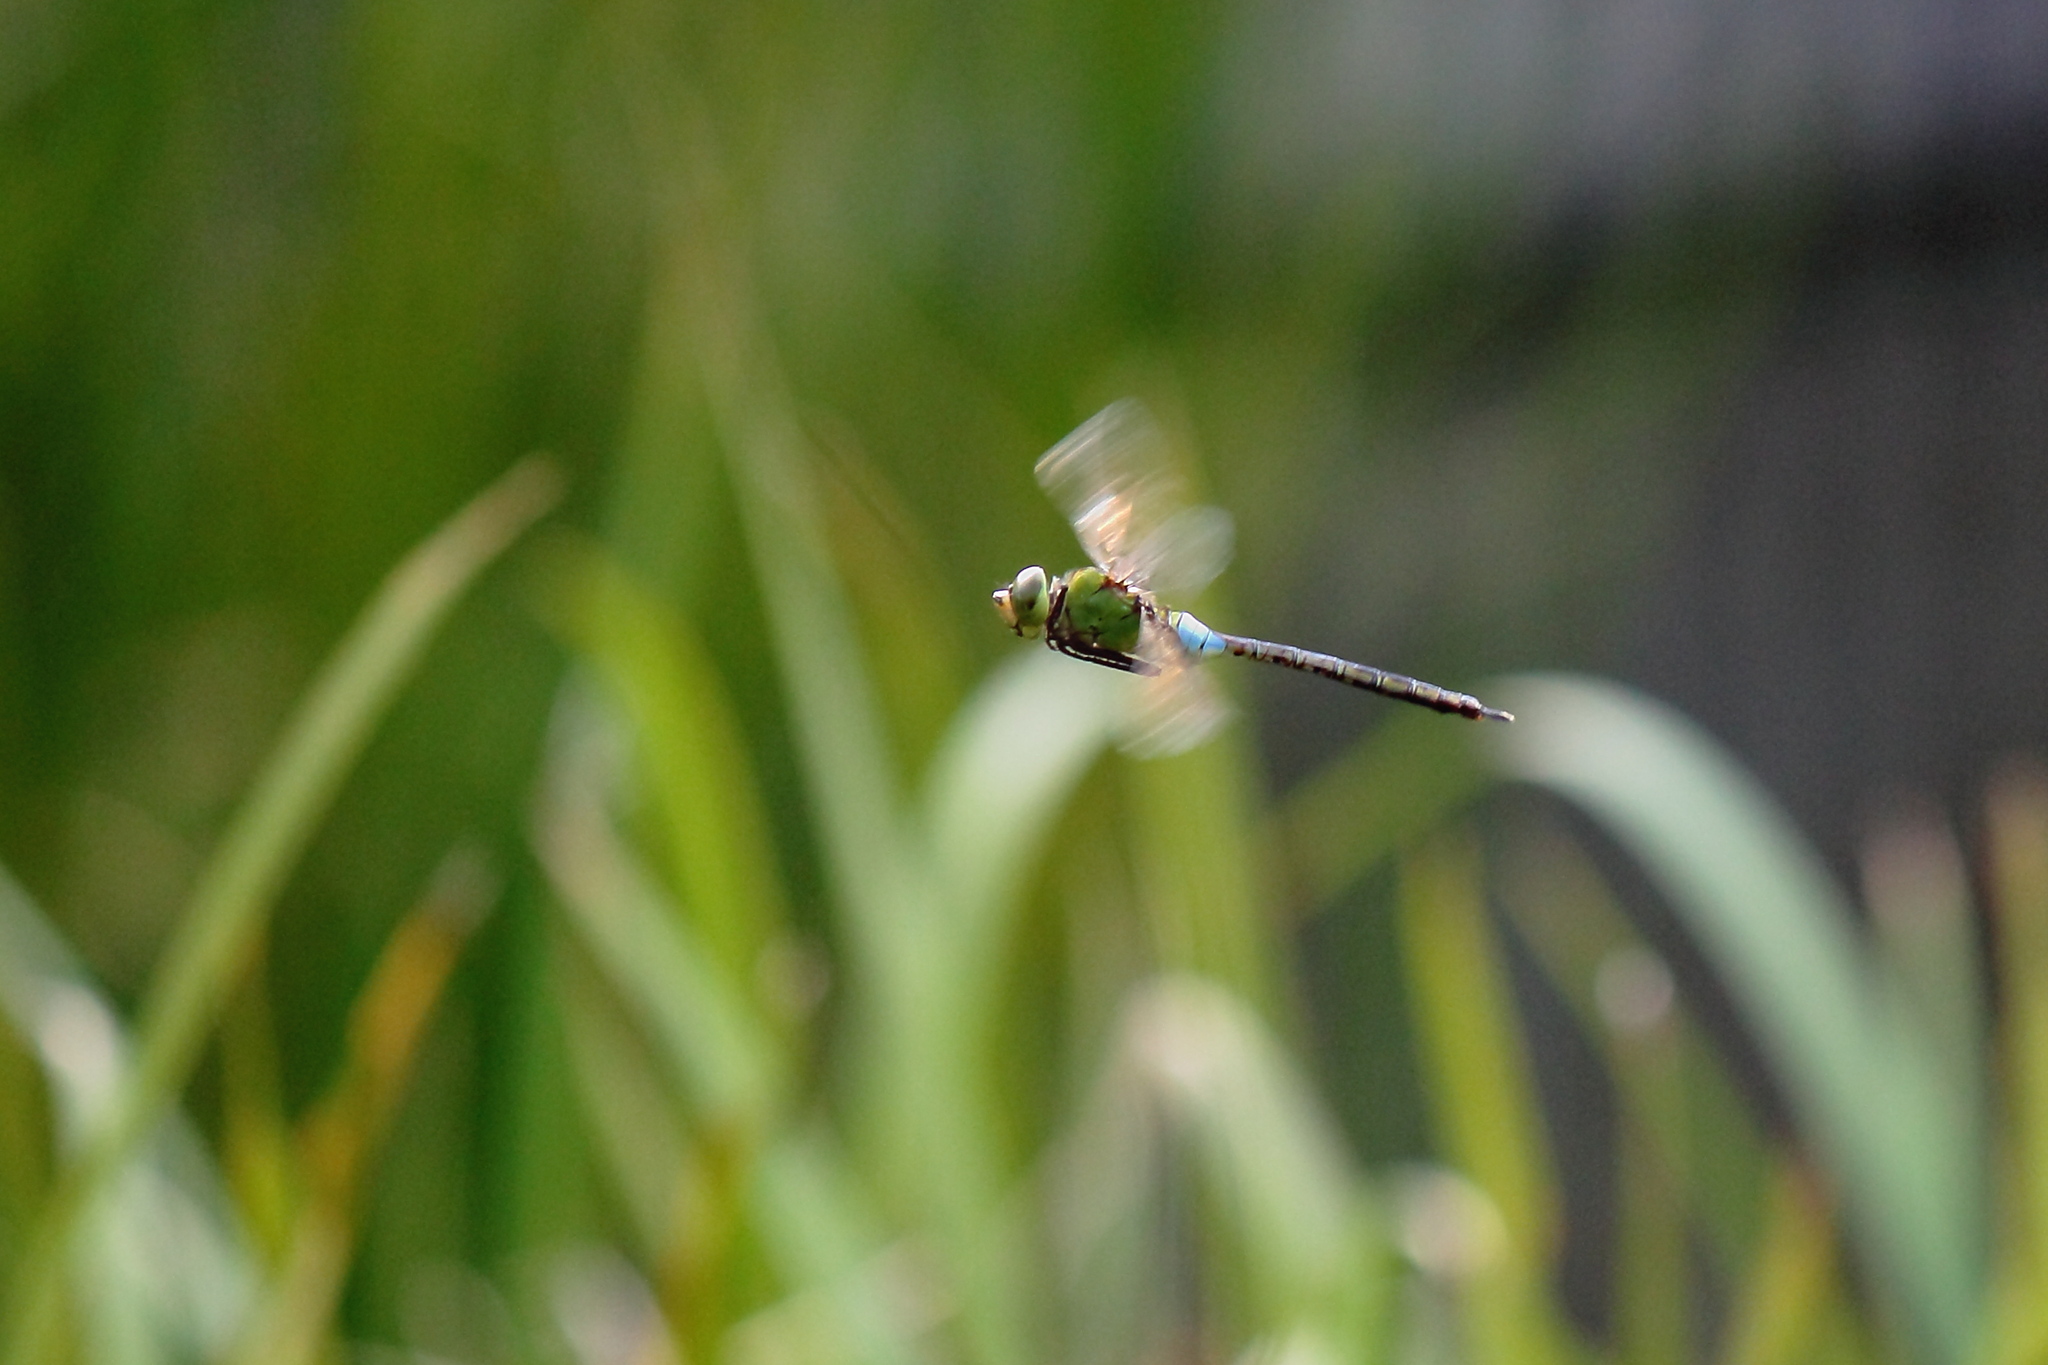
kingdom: Animalia
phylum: Arthropoda
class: Insecta
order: Odonata
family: Aeshnidae
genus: Anax
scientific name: Anax julius
